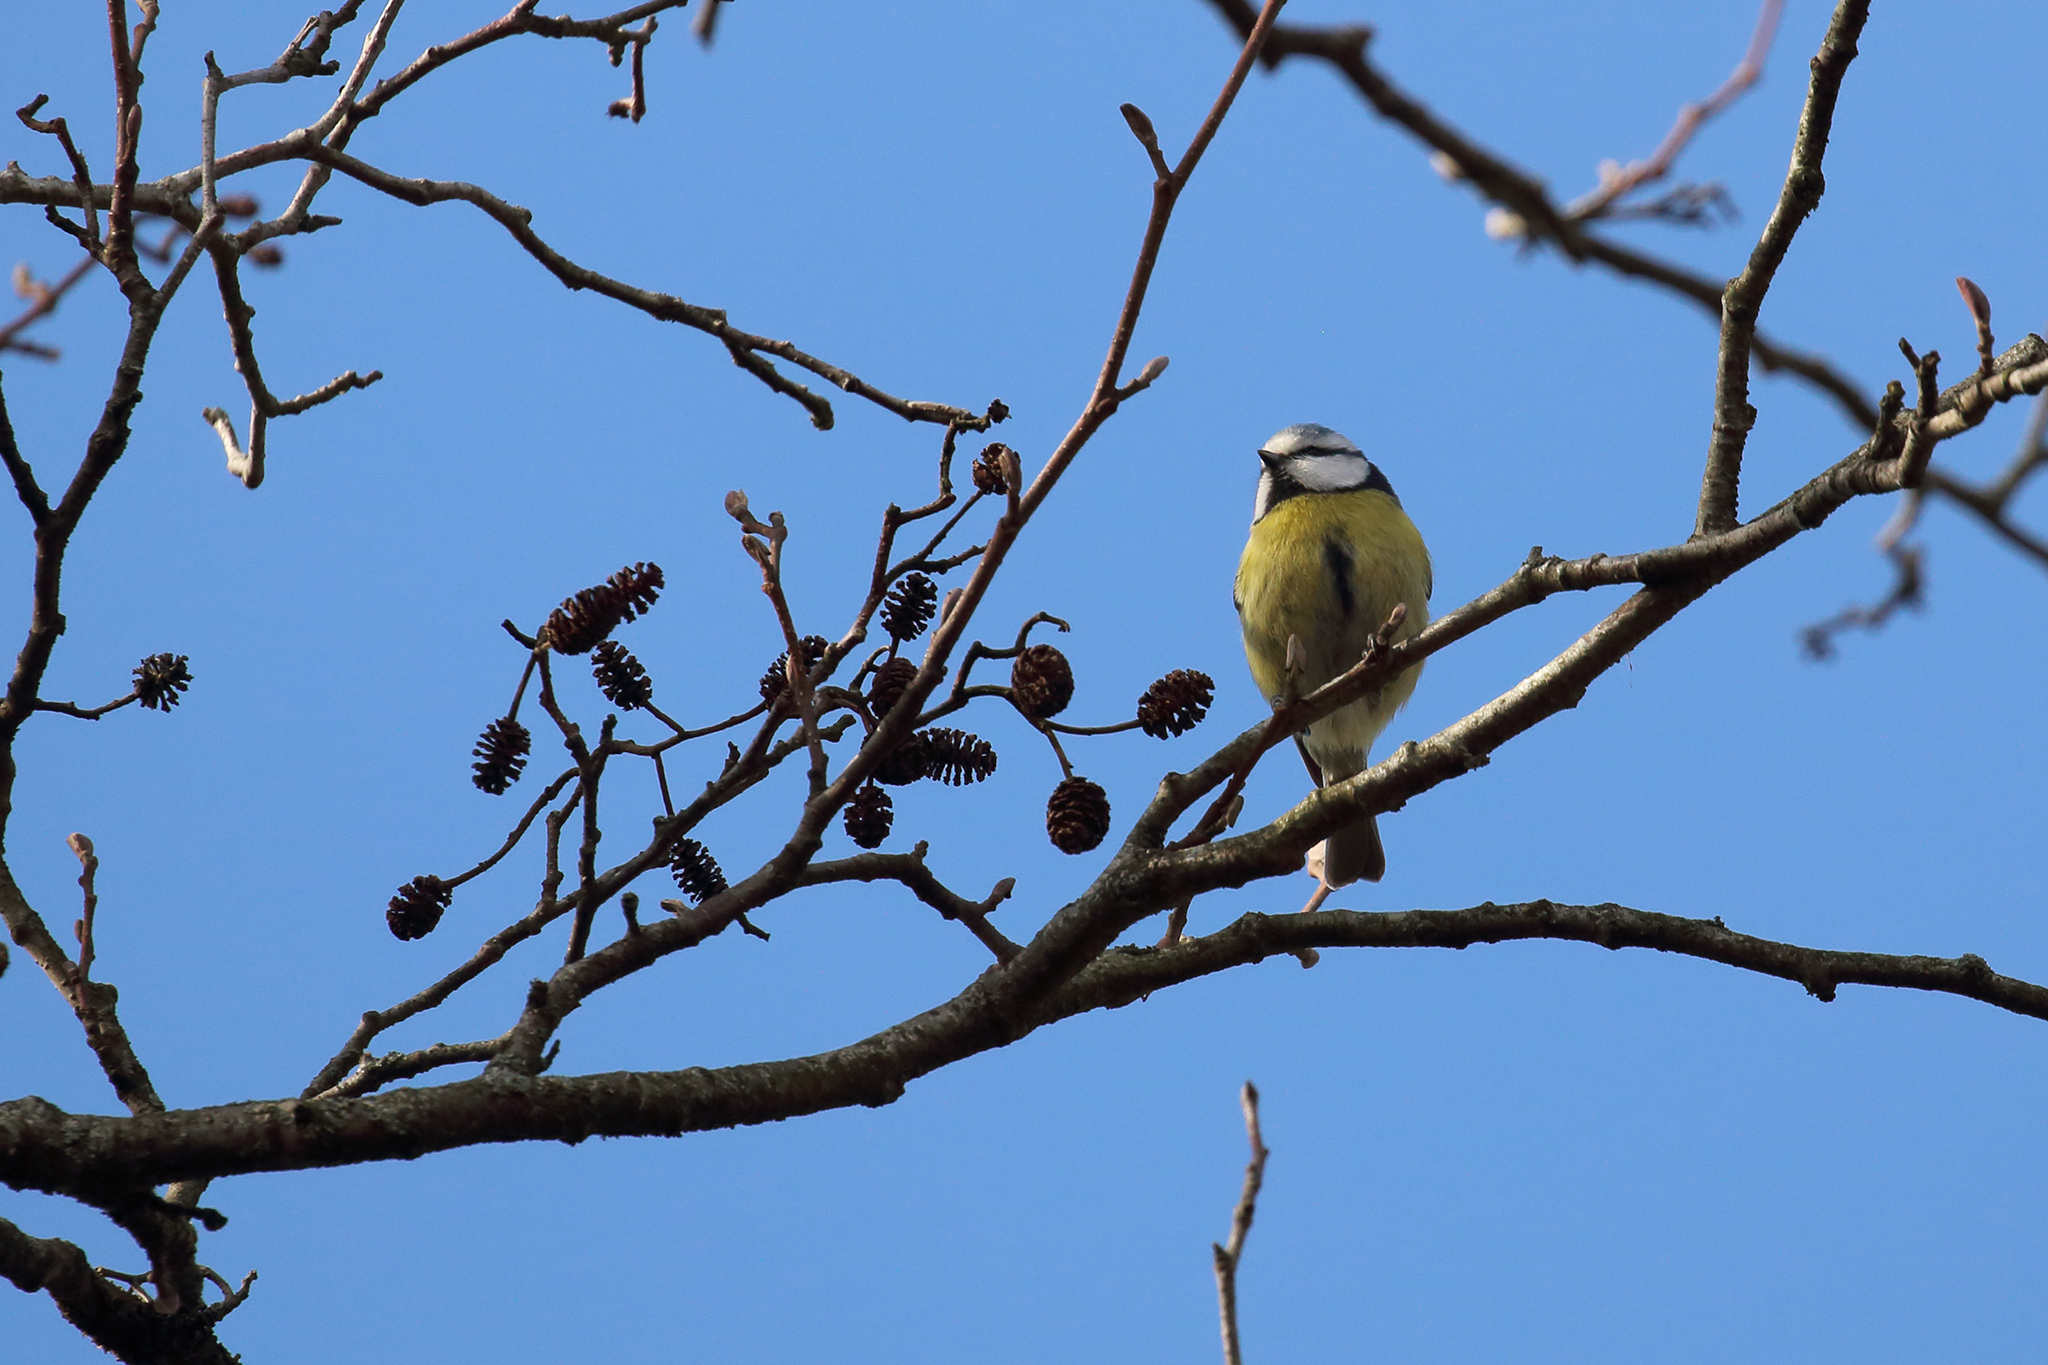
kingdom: Animalia
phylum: Chordata
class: Aves
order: Passeriformes
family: Paridae
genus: Cyanistes
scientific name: Cyanistes caeruleus
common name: Eurasian blue tit
